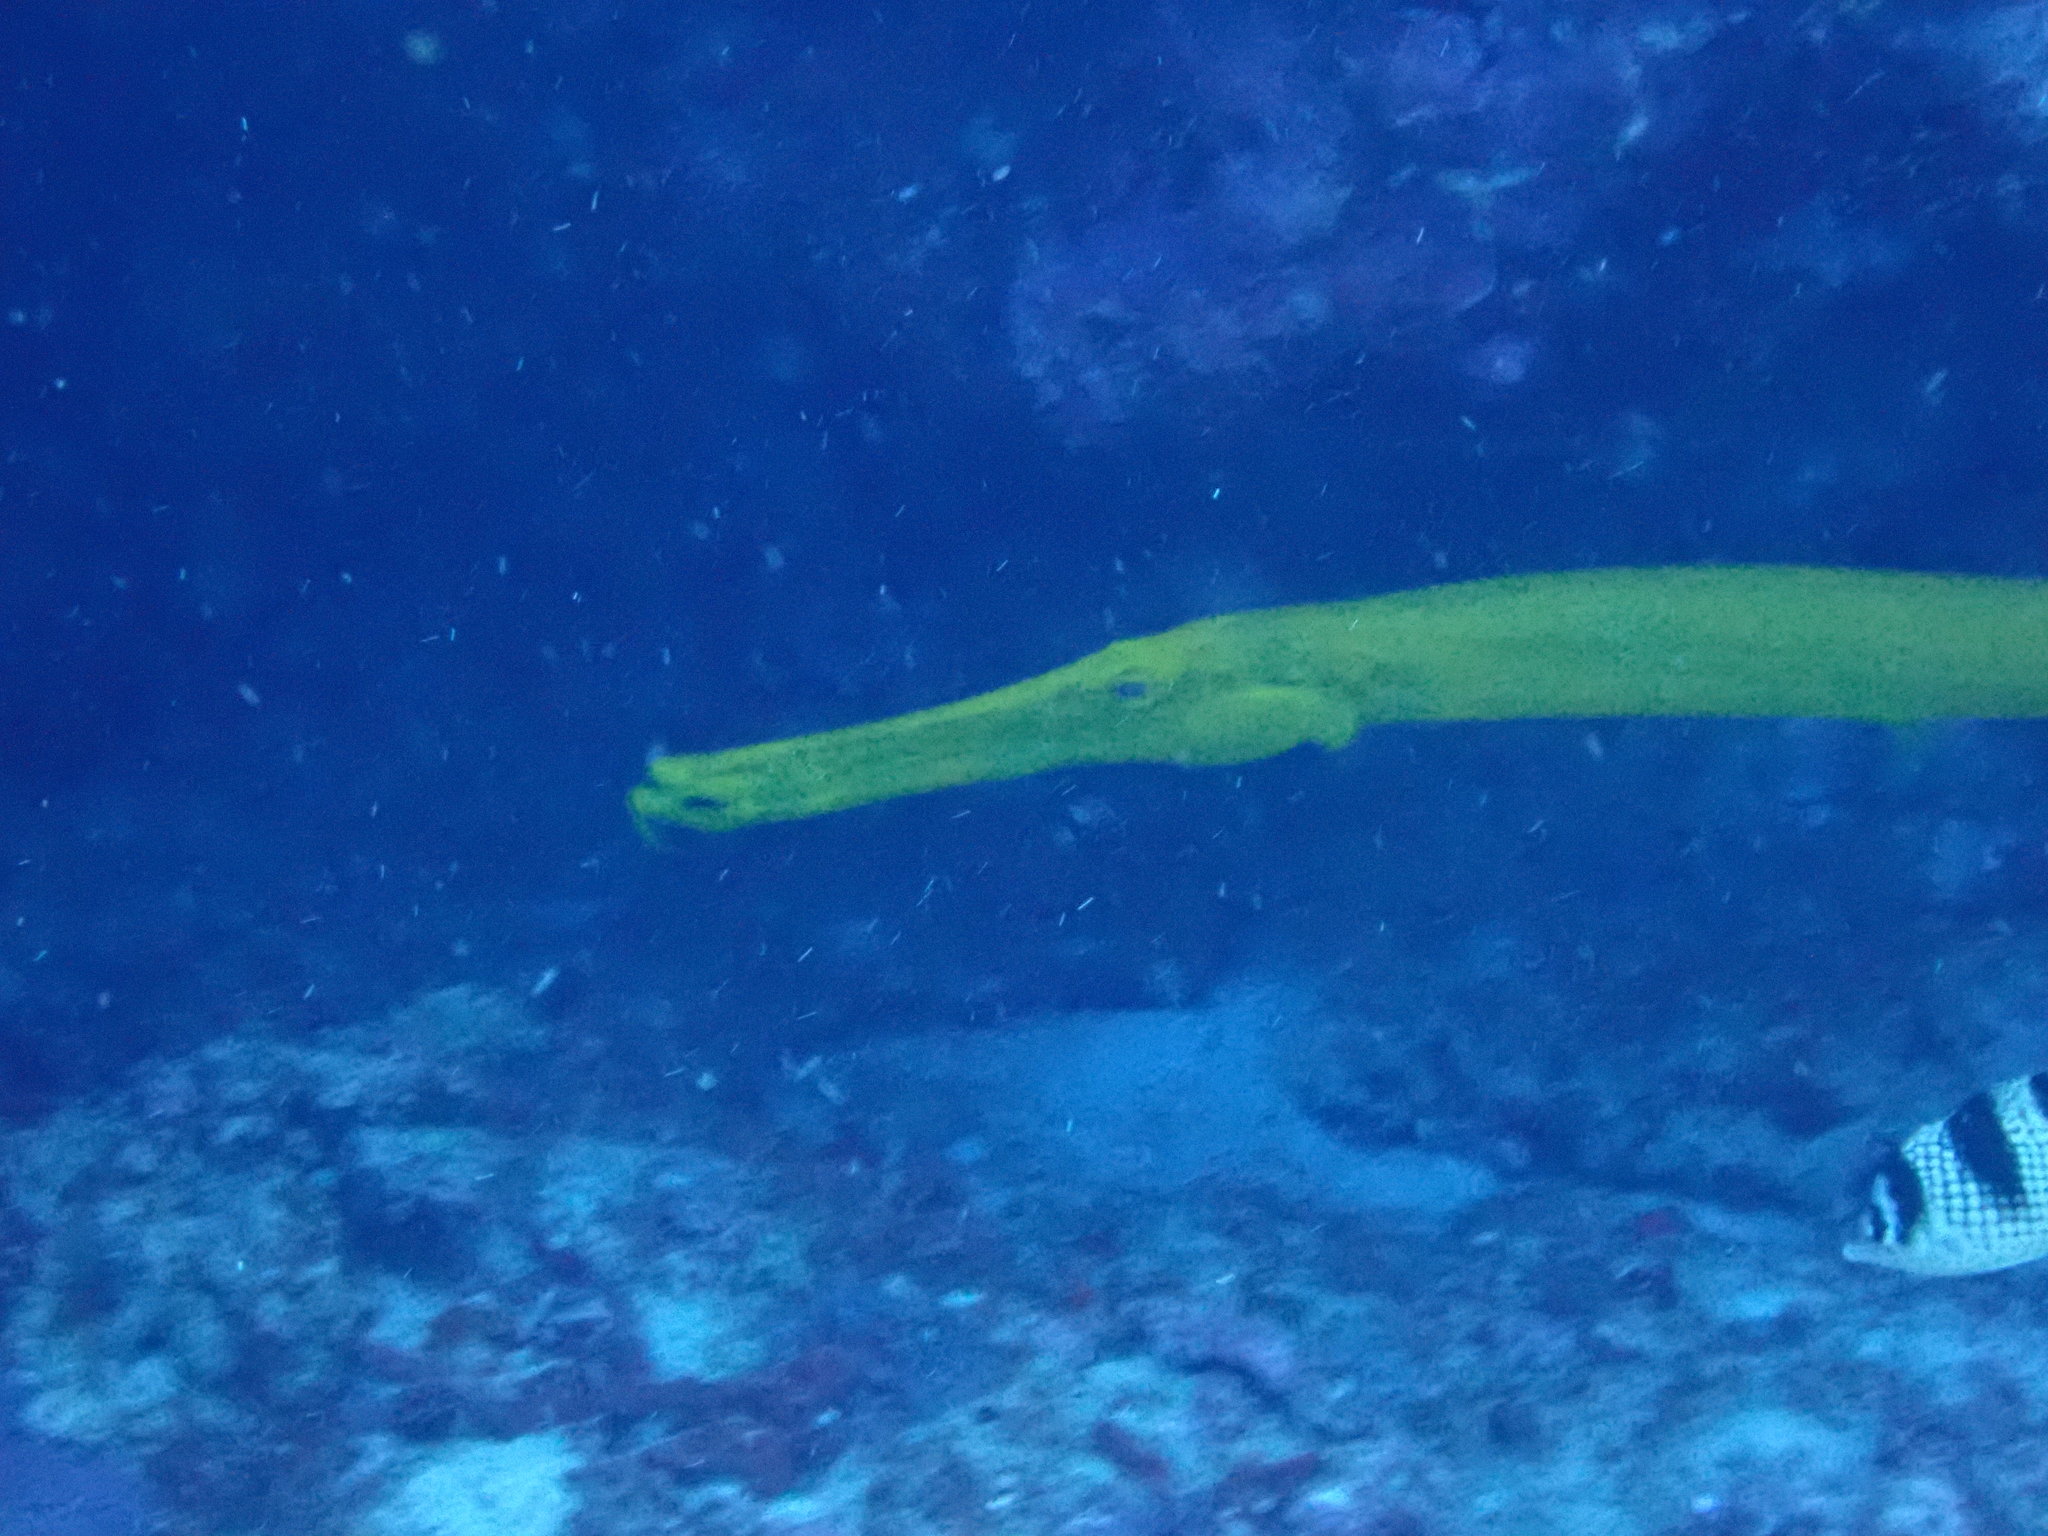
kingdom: Animalia
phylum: Chordata
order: Syngnathiformes
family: Aulostomidae
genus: Aulostomus
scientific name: Aulostomus chinensis
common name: Chinese trumpetfish
